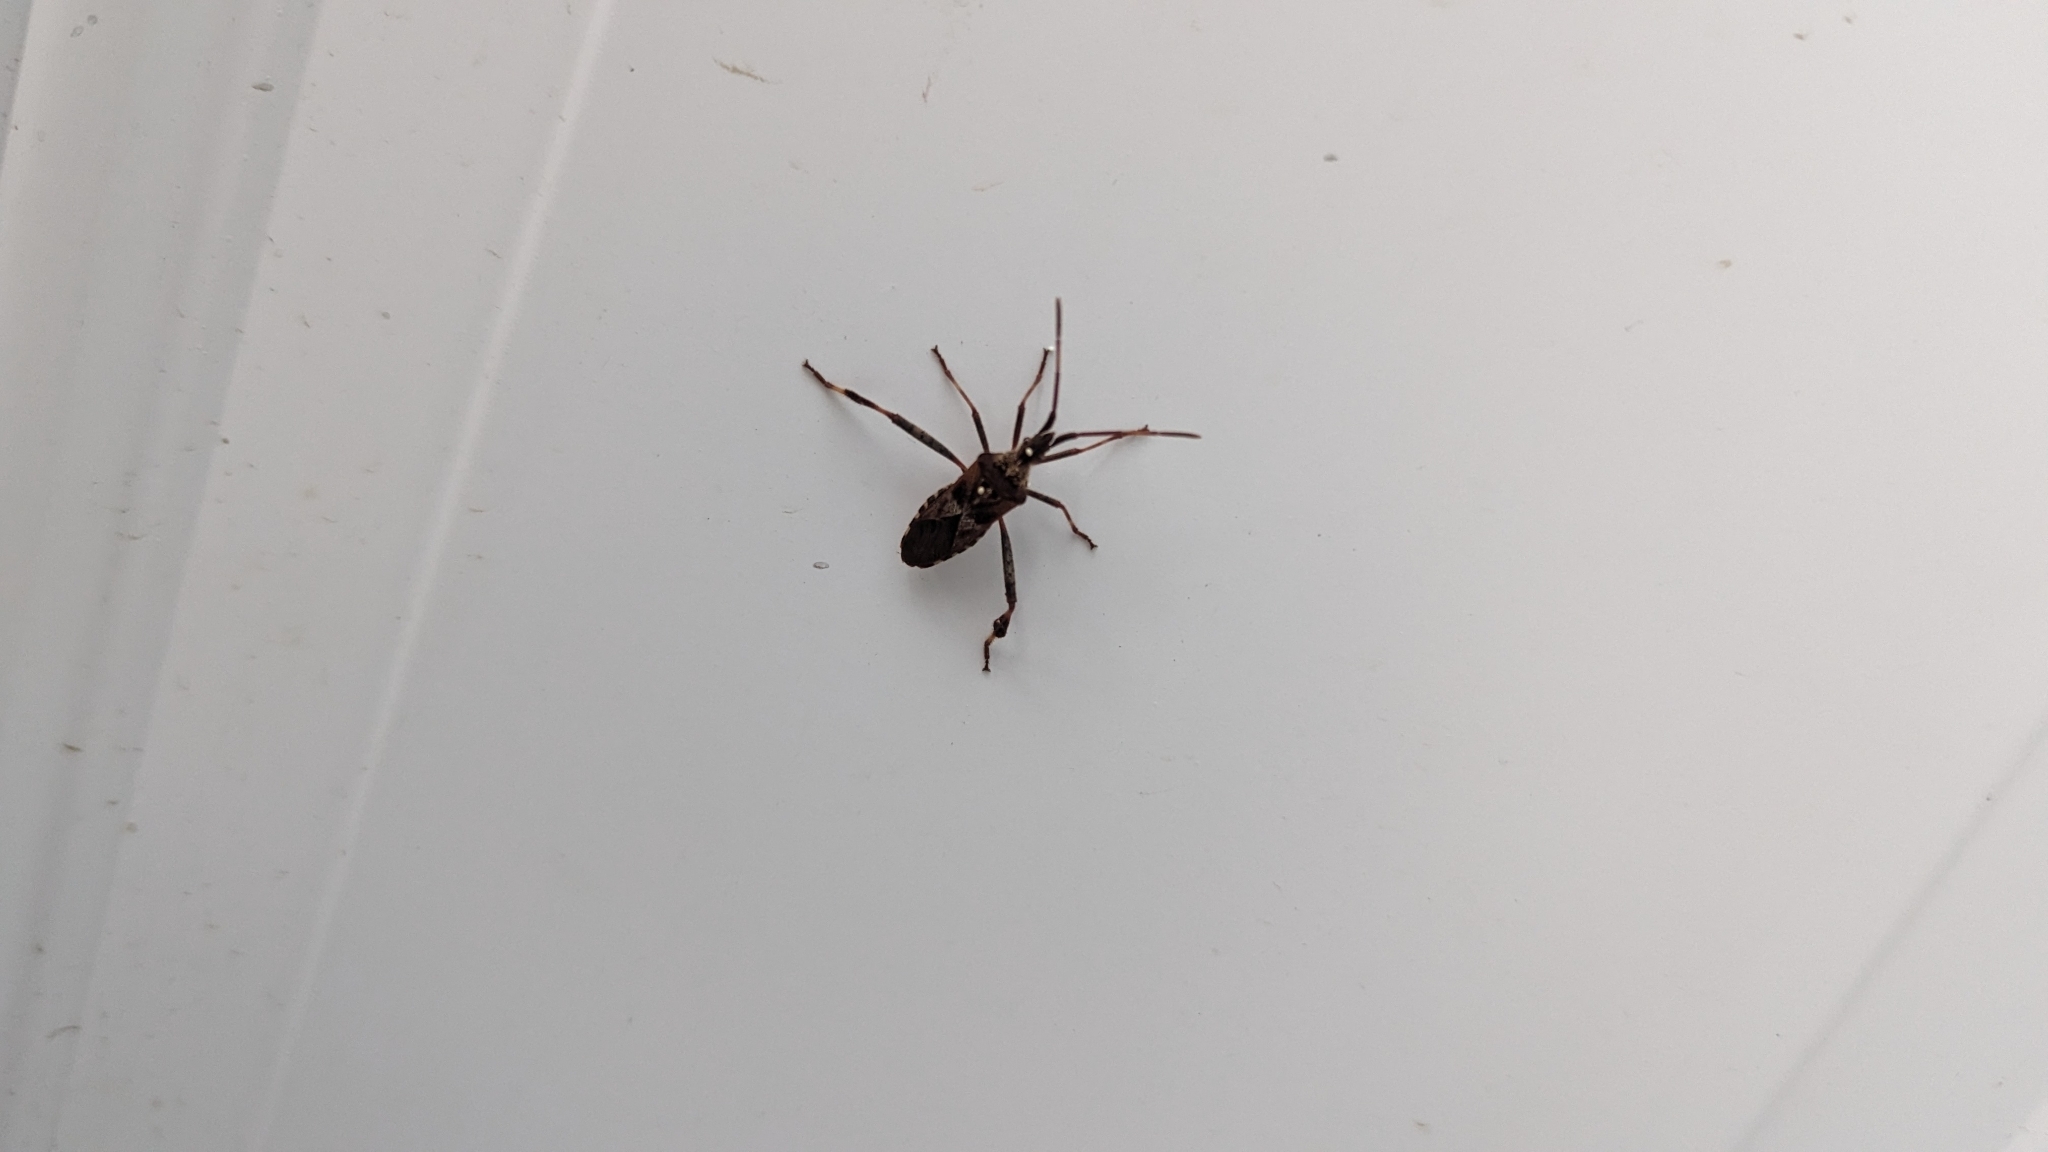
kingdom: Animalia
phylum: Arthropoda
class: Insecta
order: Hemiptera
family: Coreidae
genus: Leptoglossus
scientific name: Leptoglossus occidentalis
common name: Western conifer-seed bug
